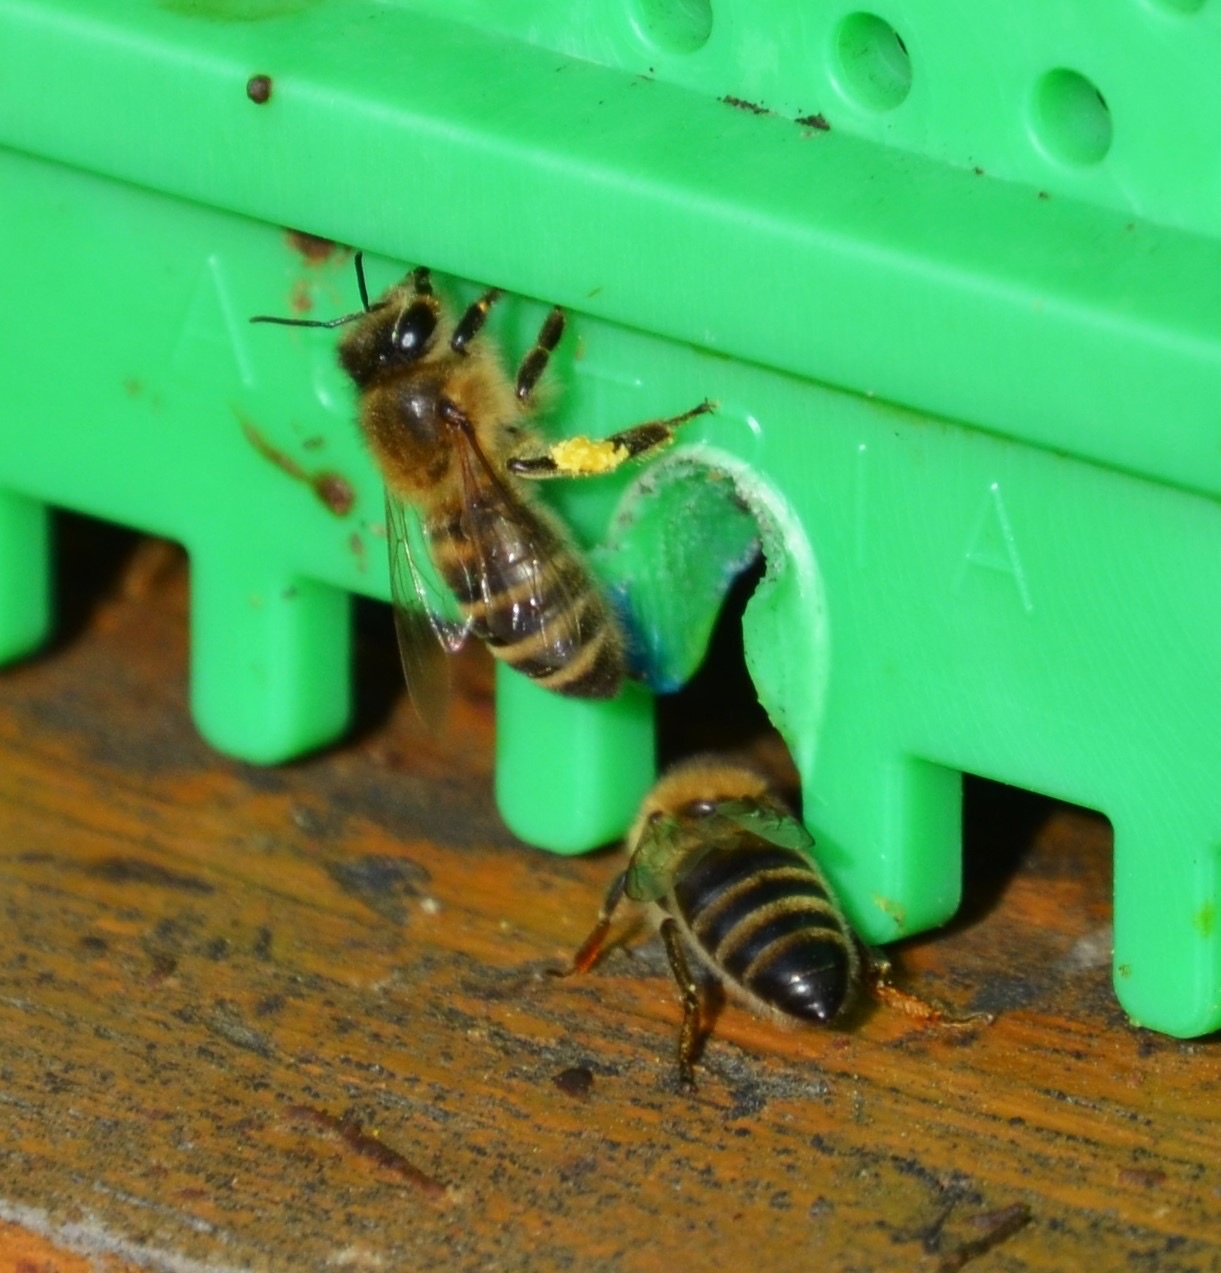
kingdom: Animalia
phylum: Arthropoda
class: Insecta
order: Hymenoptera
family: Apidae
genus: Apis
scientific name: Apis mellifera
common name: Honey bee
